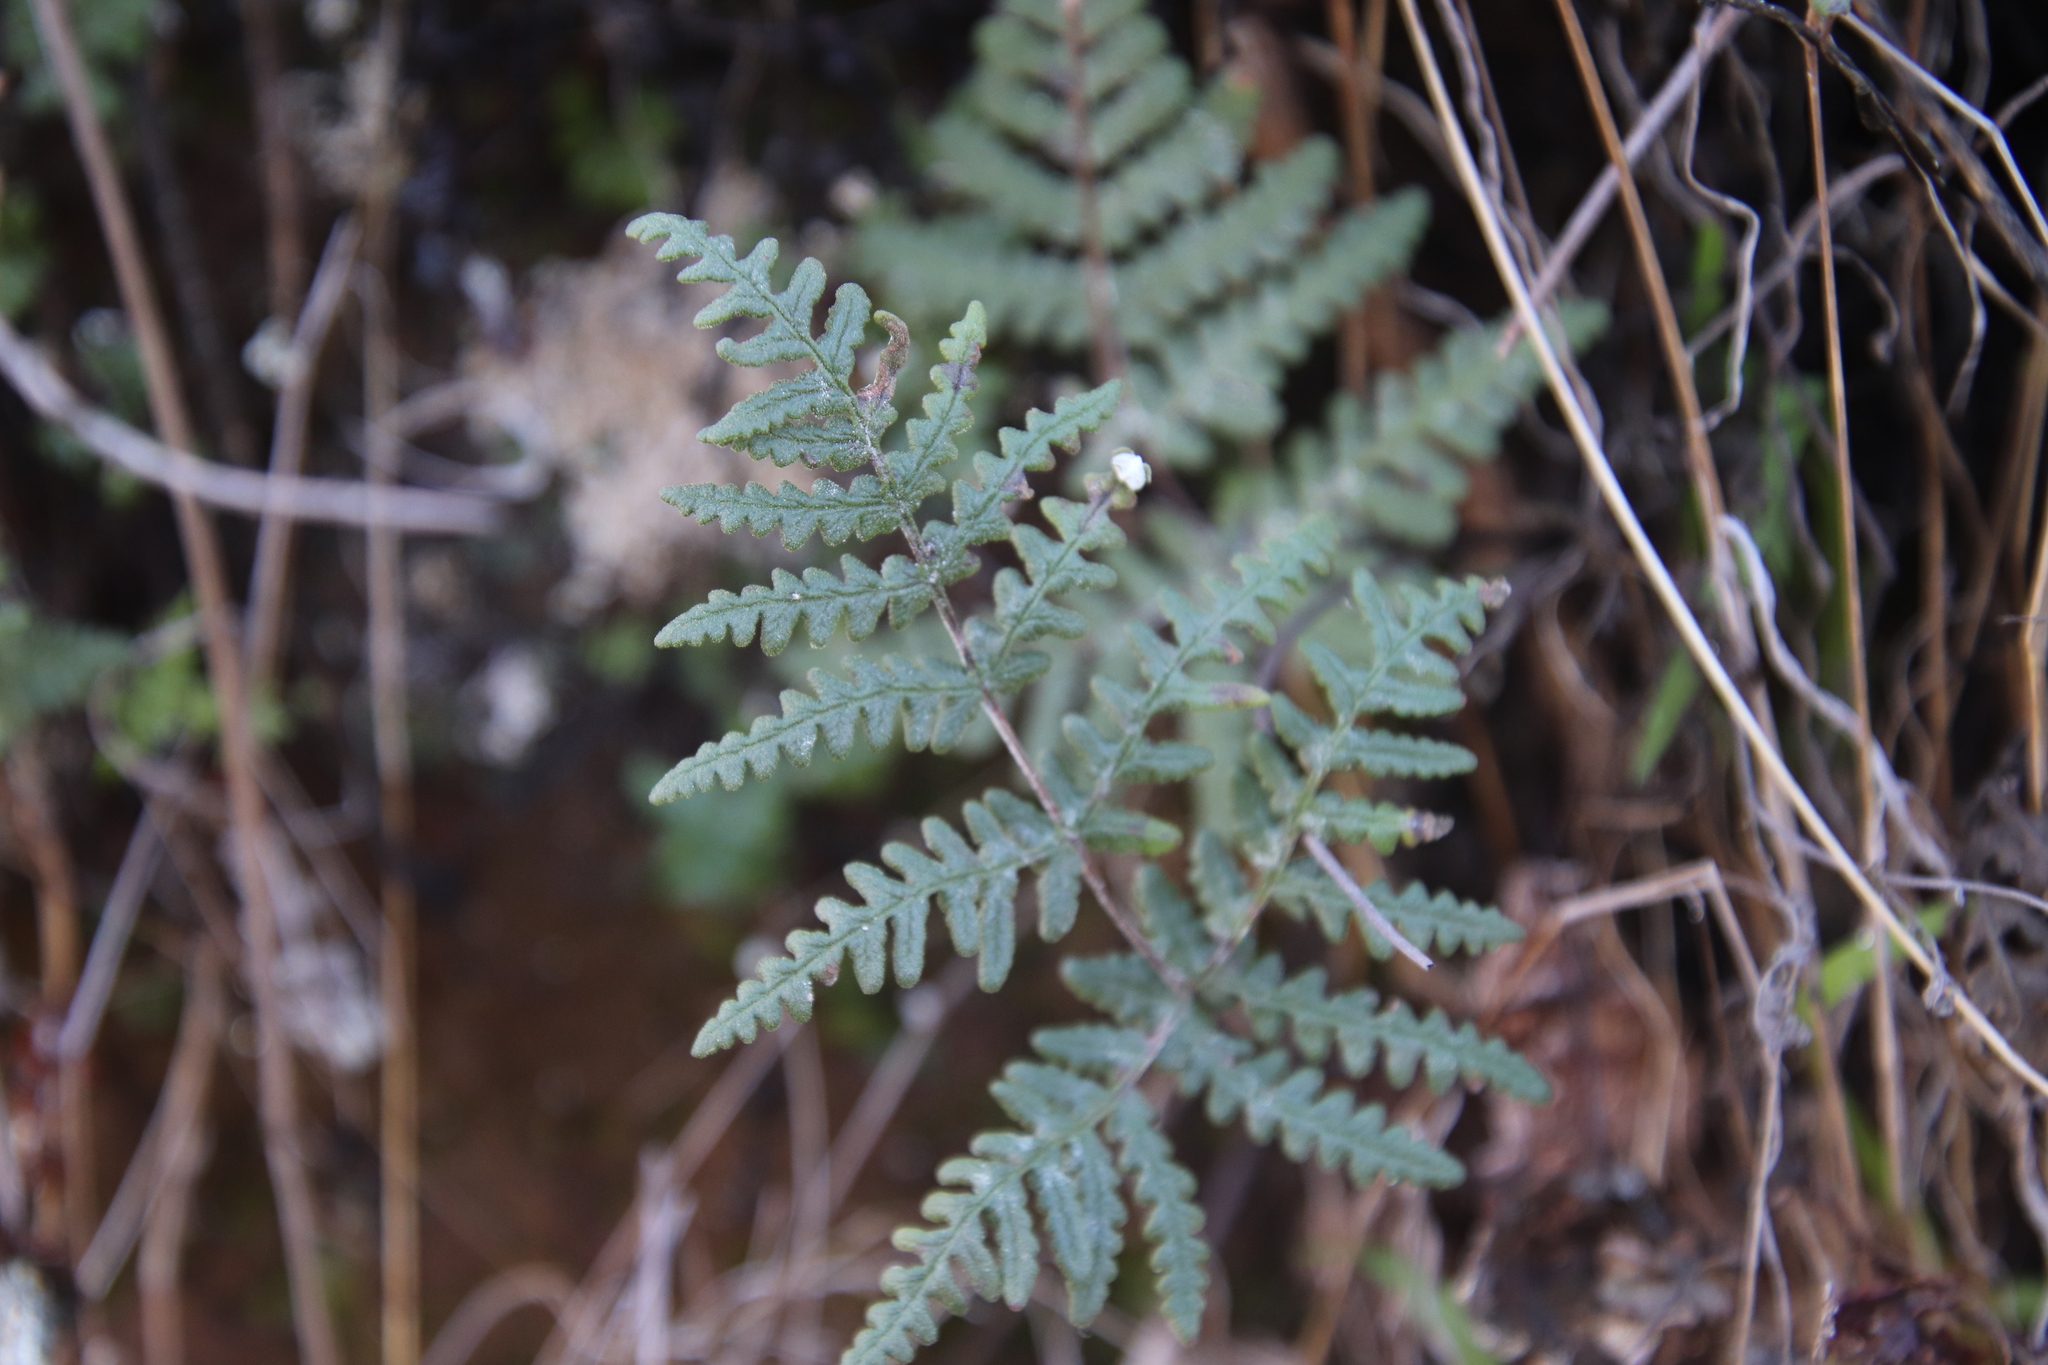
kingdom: Plantae
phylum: Tracheophyta
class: Polypodiopsida
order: Polypodiales
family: Pteridaceae
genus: Pentagramma
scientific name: Pentagramma glanduloviscida
